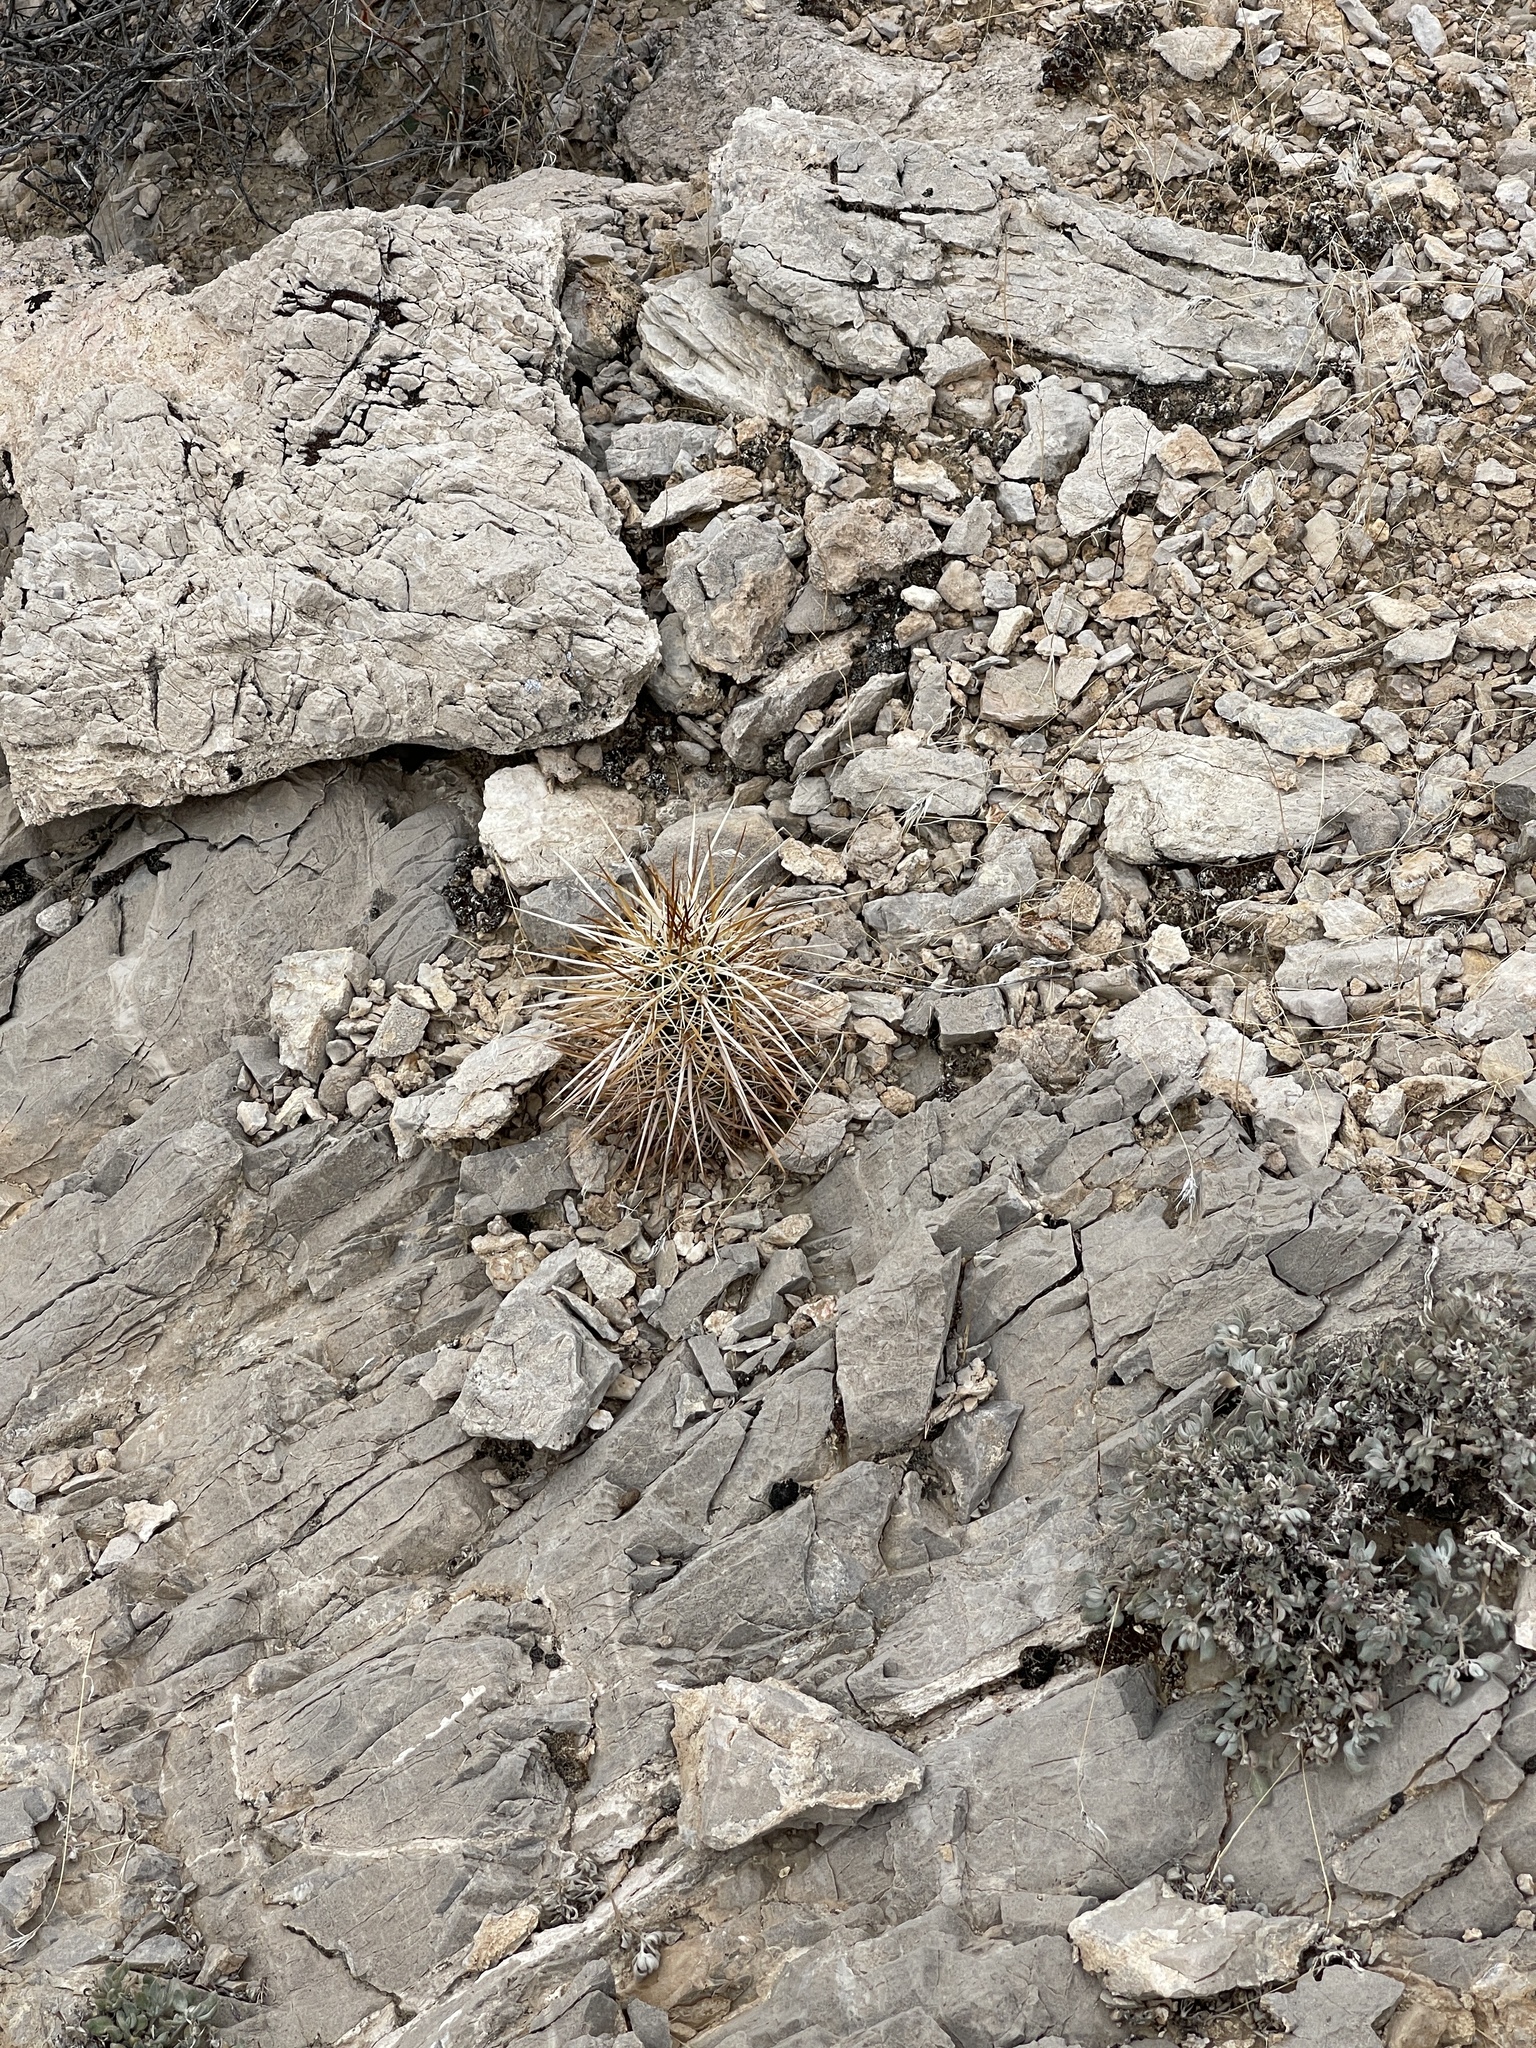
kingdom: Plantae
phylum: Tracheophyta
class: Magnoliopsida
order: Caryophyllales
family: Cactaceae
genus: Echinocereus
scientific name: Echinocereus engelmannii
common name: Engelmann's hedgehog cactus
